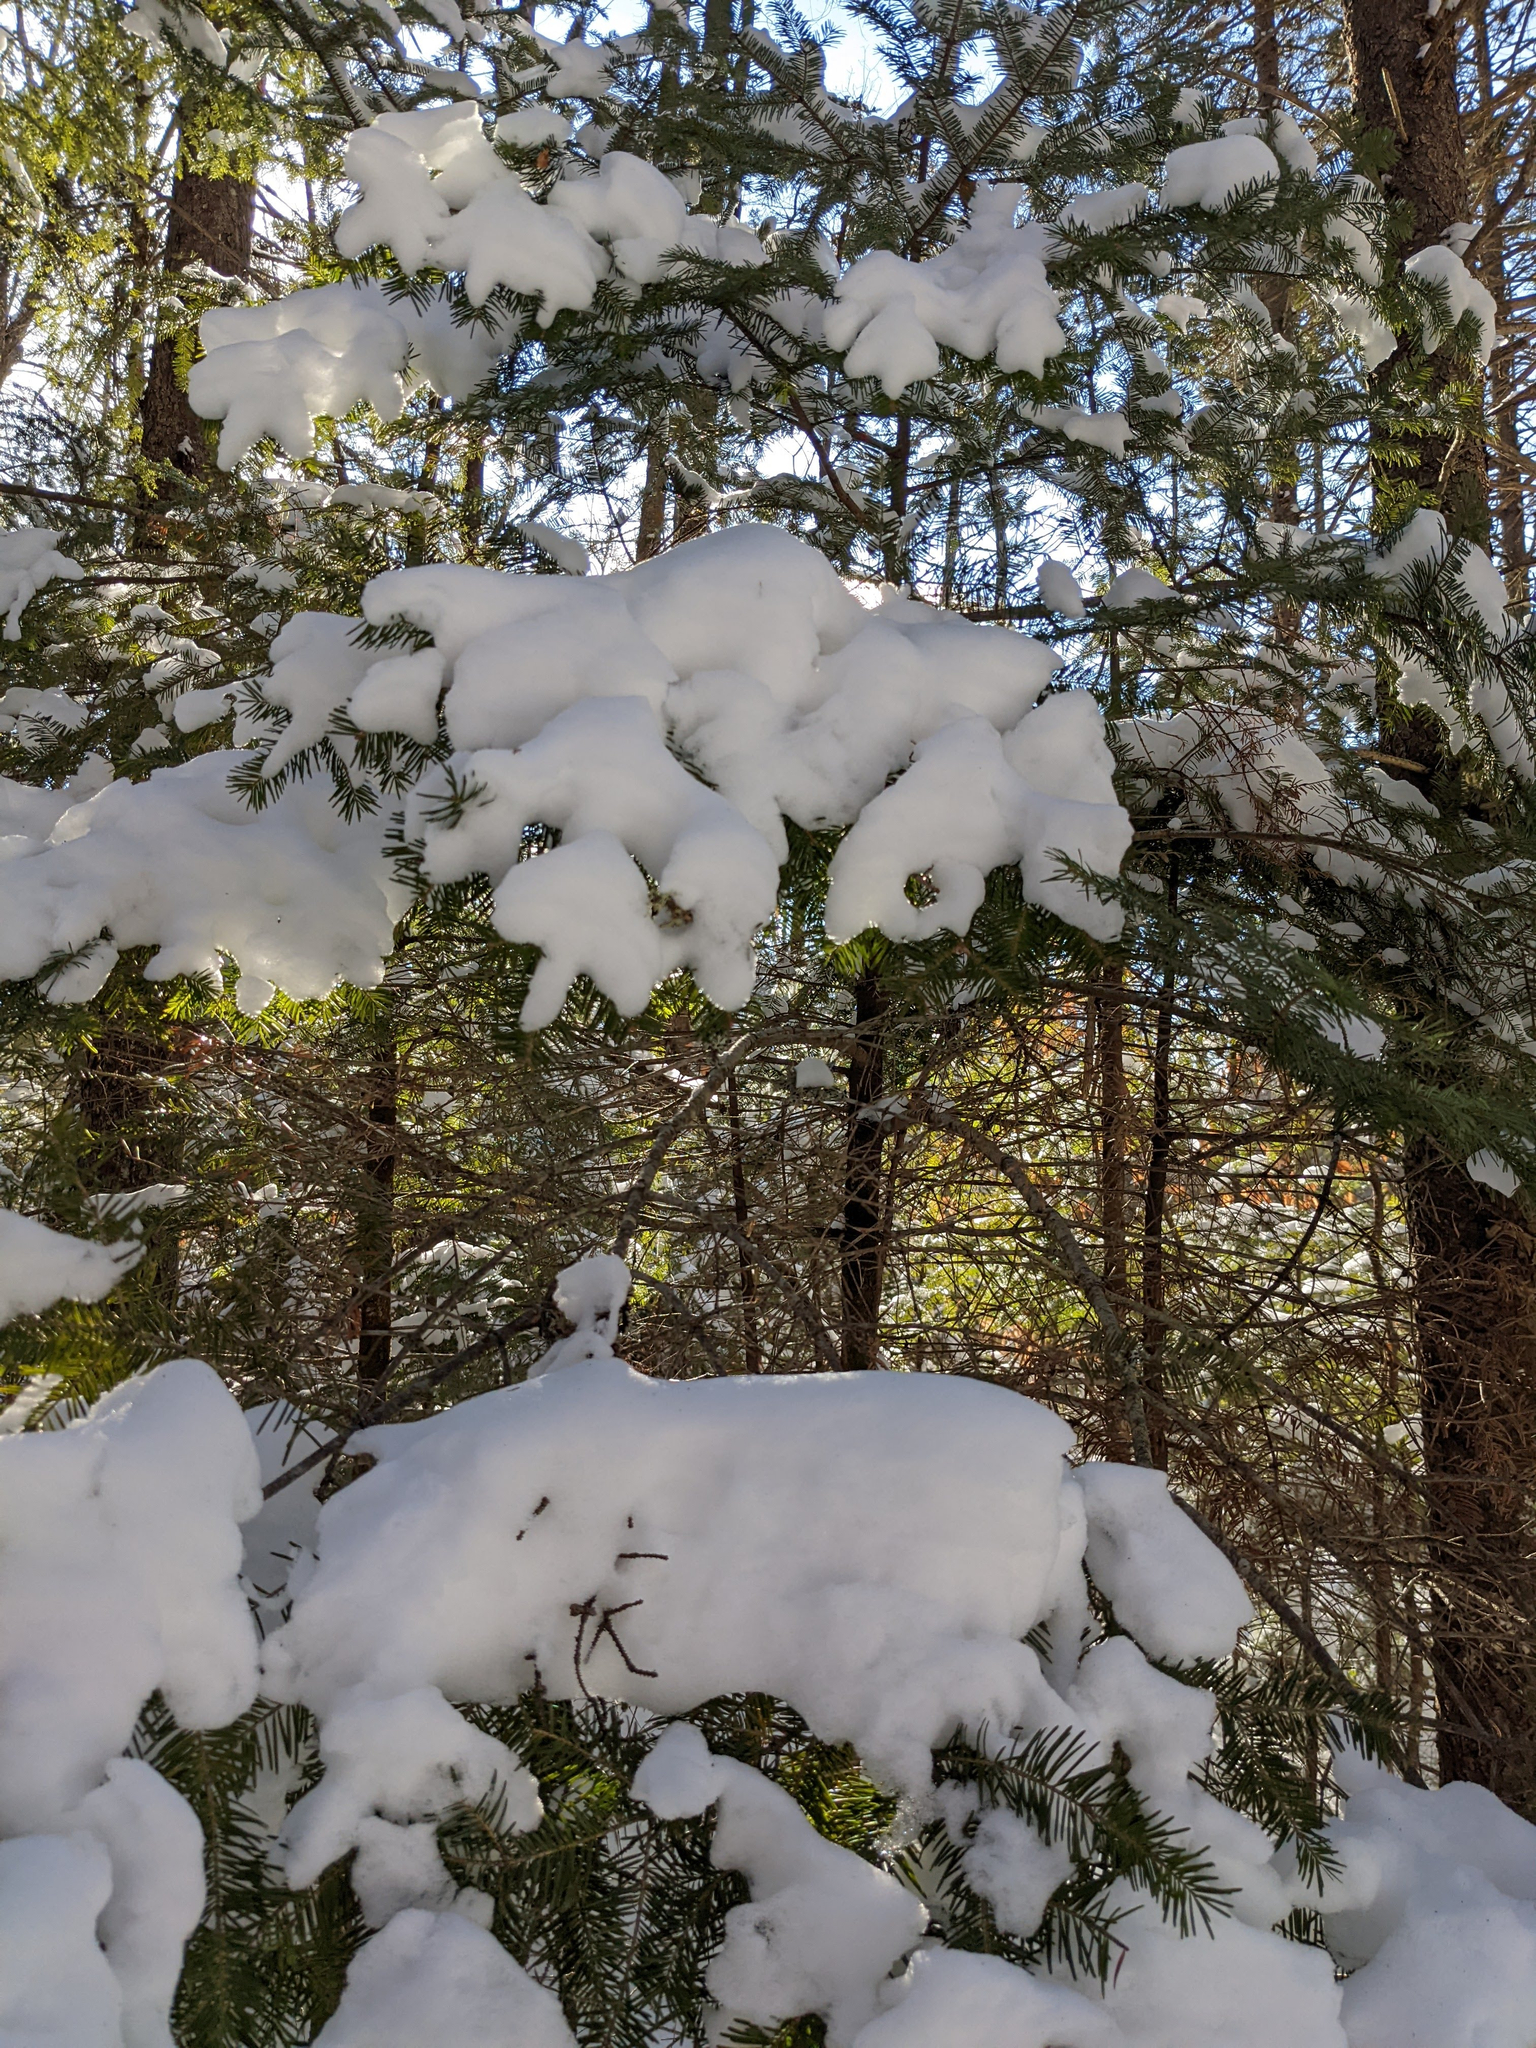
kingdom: Plantae
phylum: Tracheophyta
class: Pinopsida
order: Pinales
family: Pinaceae
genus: Abies
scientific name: Abies balsamea
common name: Balsam fir
